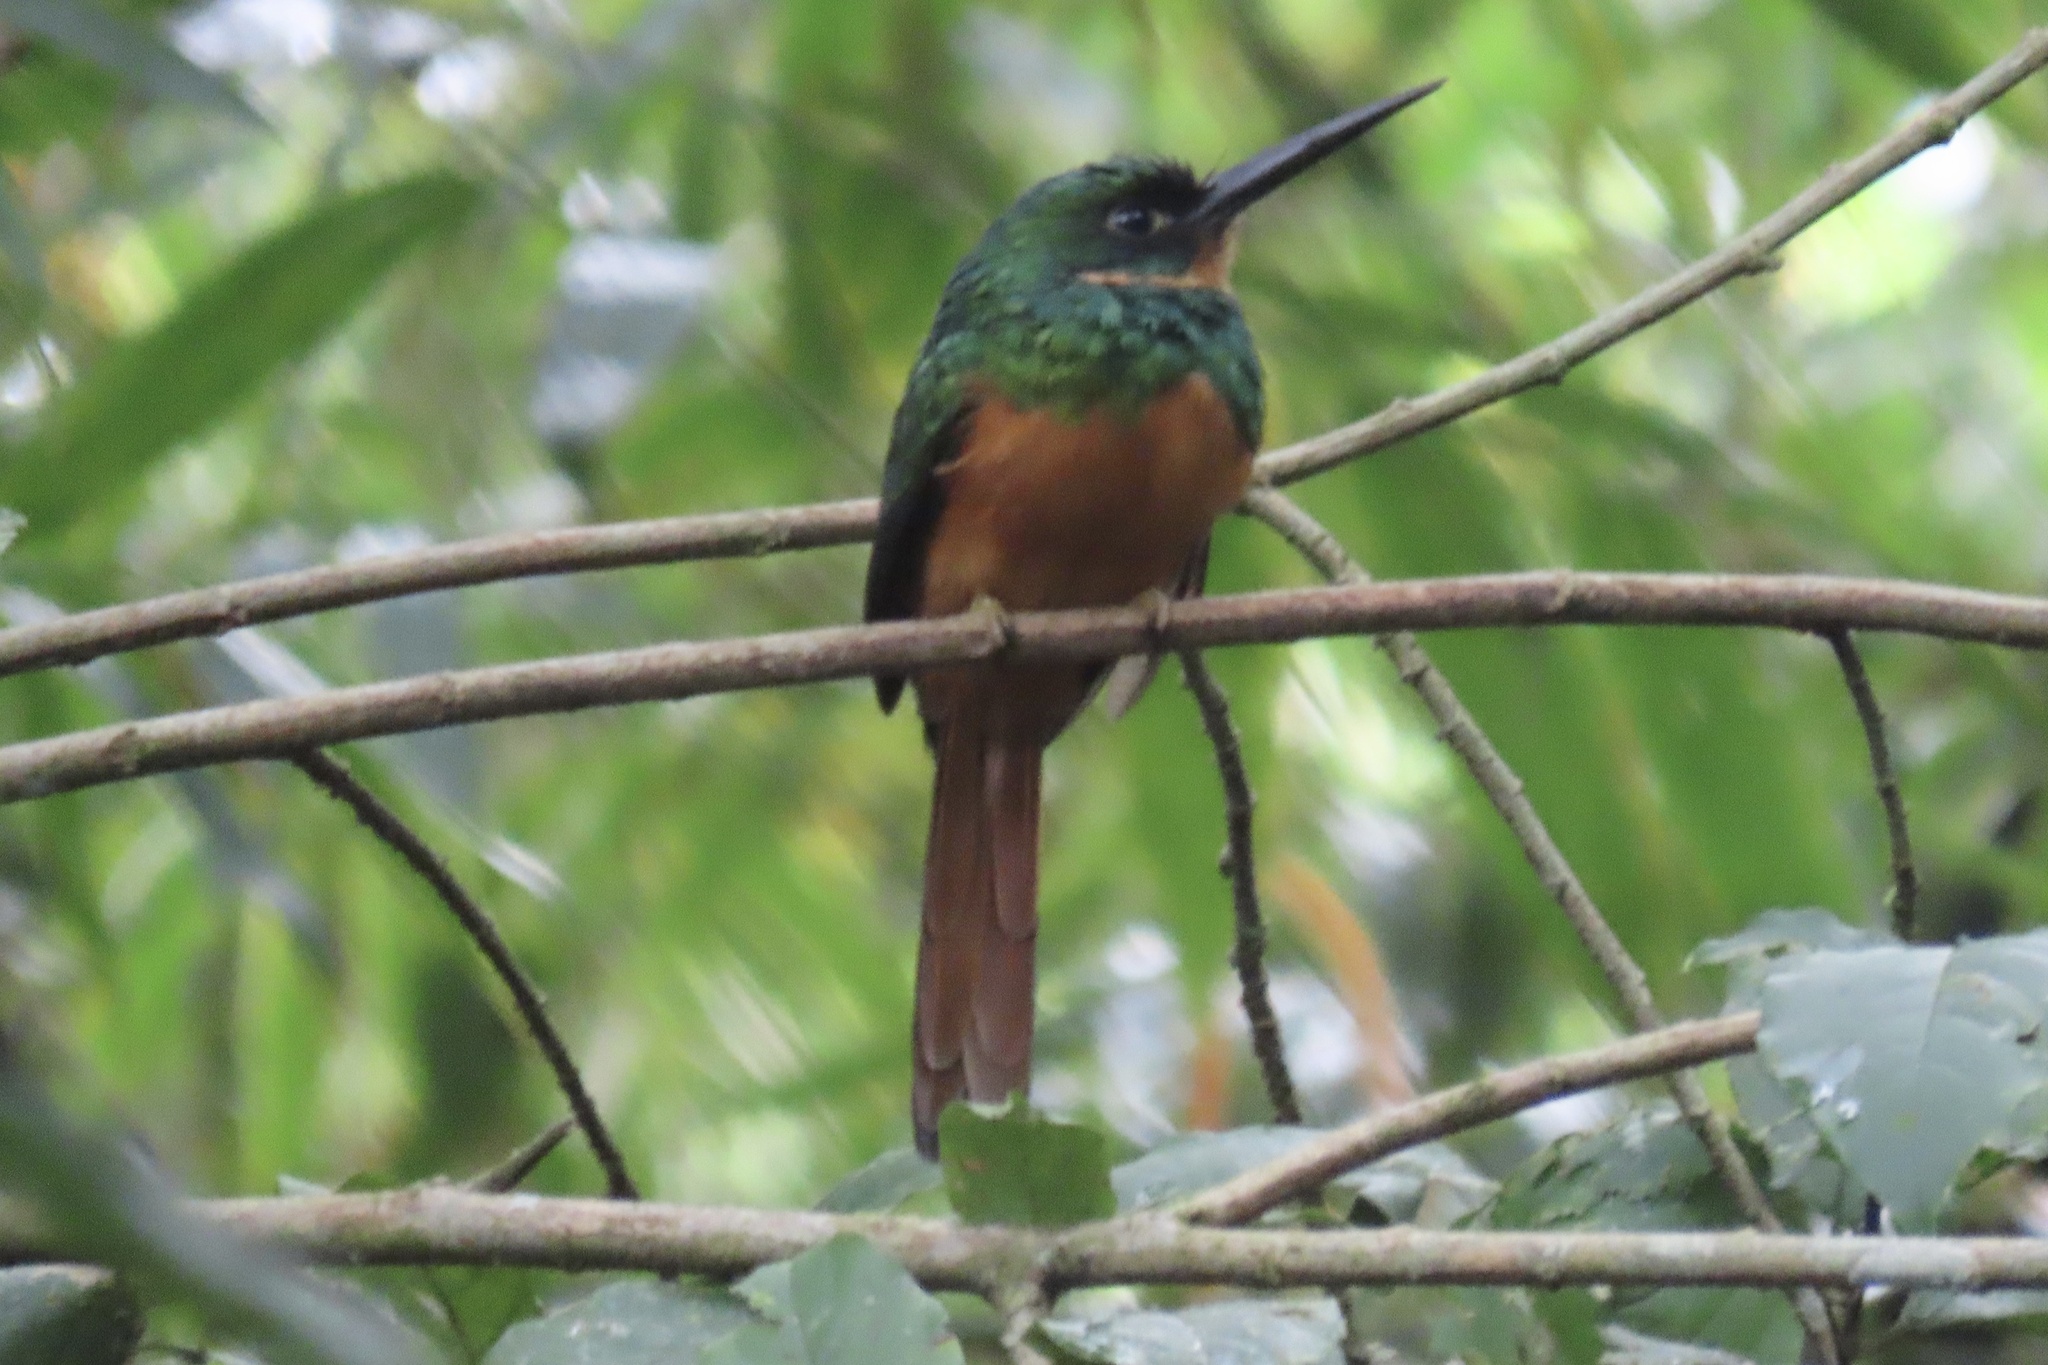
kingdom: Animalia
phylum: Chordata
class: Aves
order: Piciformes
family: Galbulidae
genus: Galbula
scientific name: Galbula ruficauda
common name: Rufous-tailed jacamar
